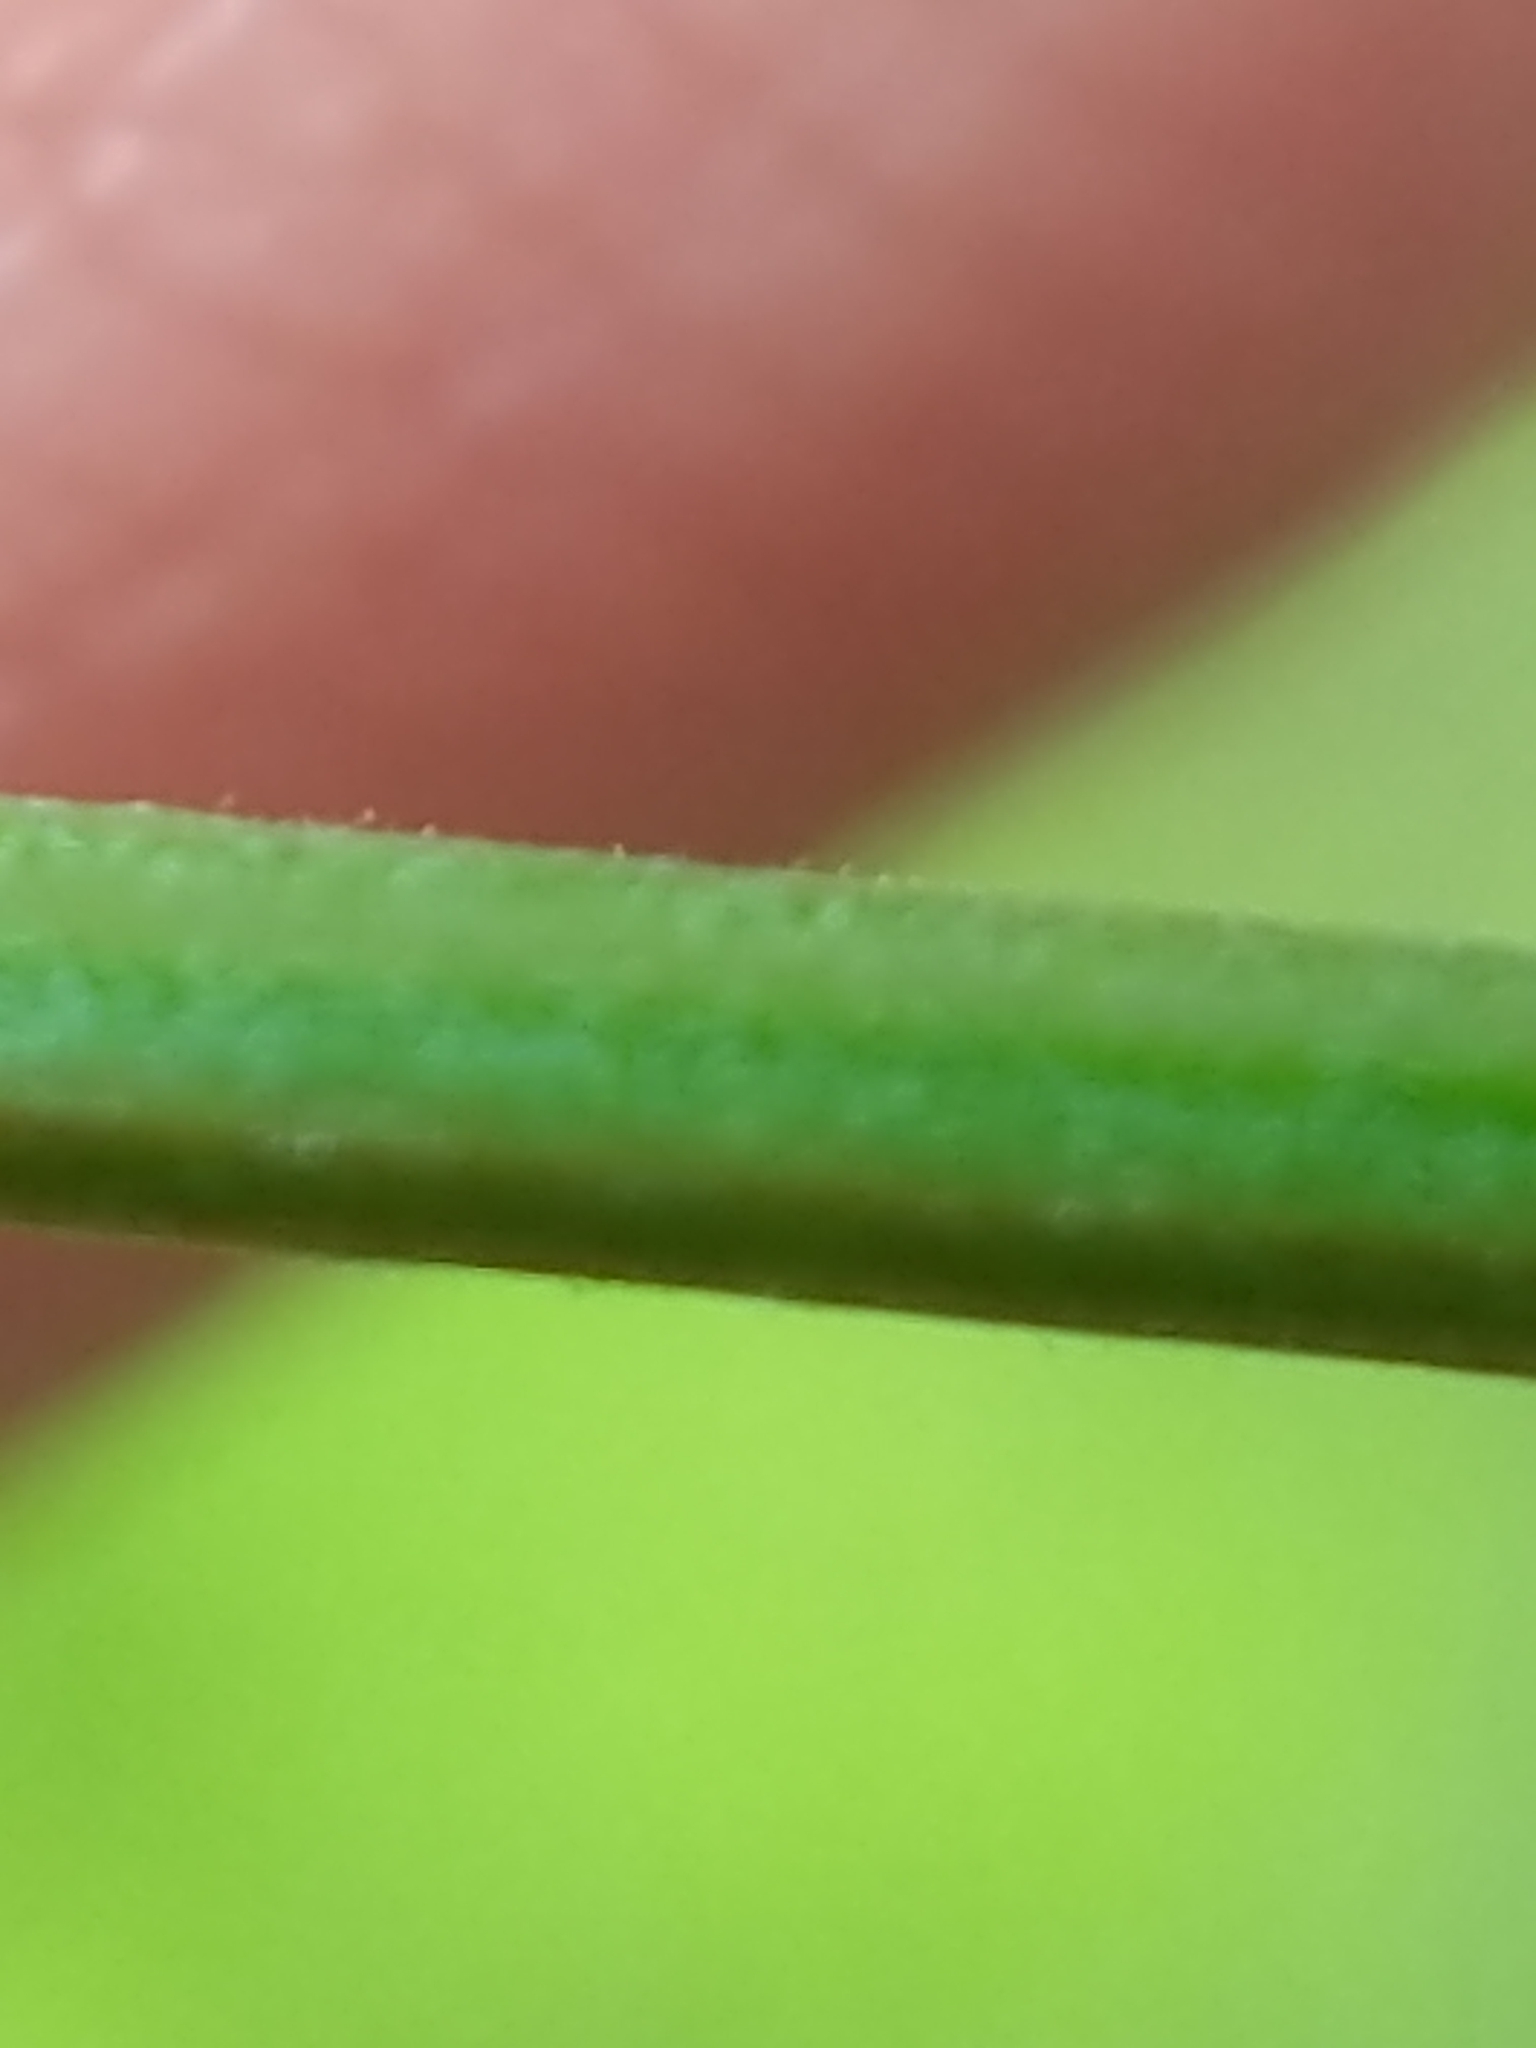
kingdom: Plantae
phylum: Tracheophyta
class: Magnoliopsida
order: Fabales
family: Fabaceae
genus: Desmodium
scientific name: Desmodium paniculatum
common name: Panicled tick-clover
